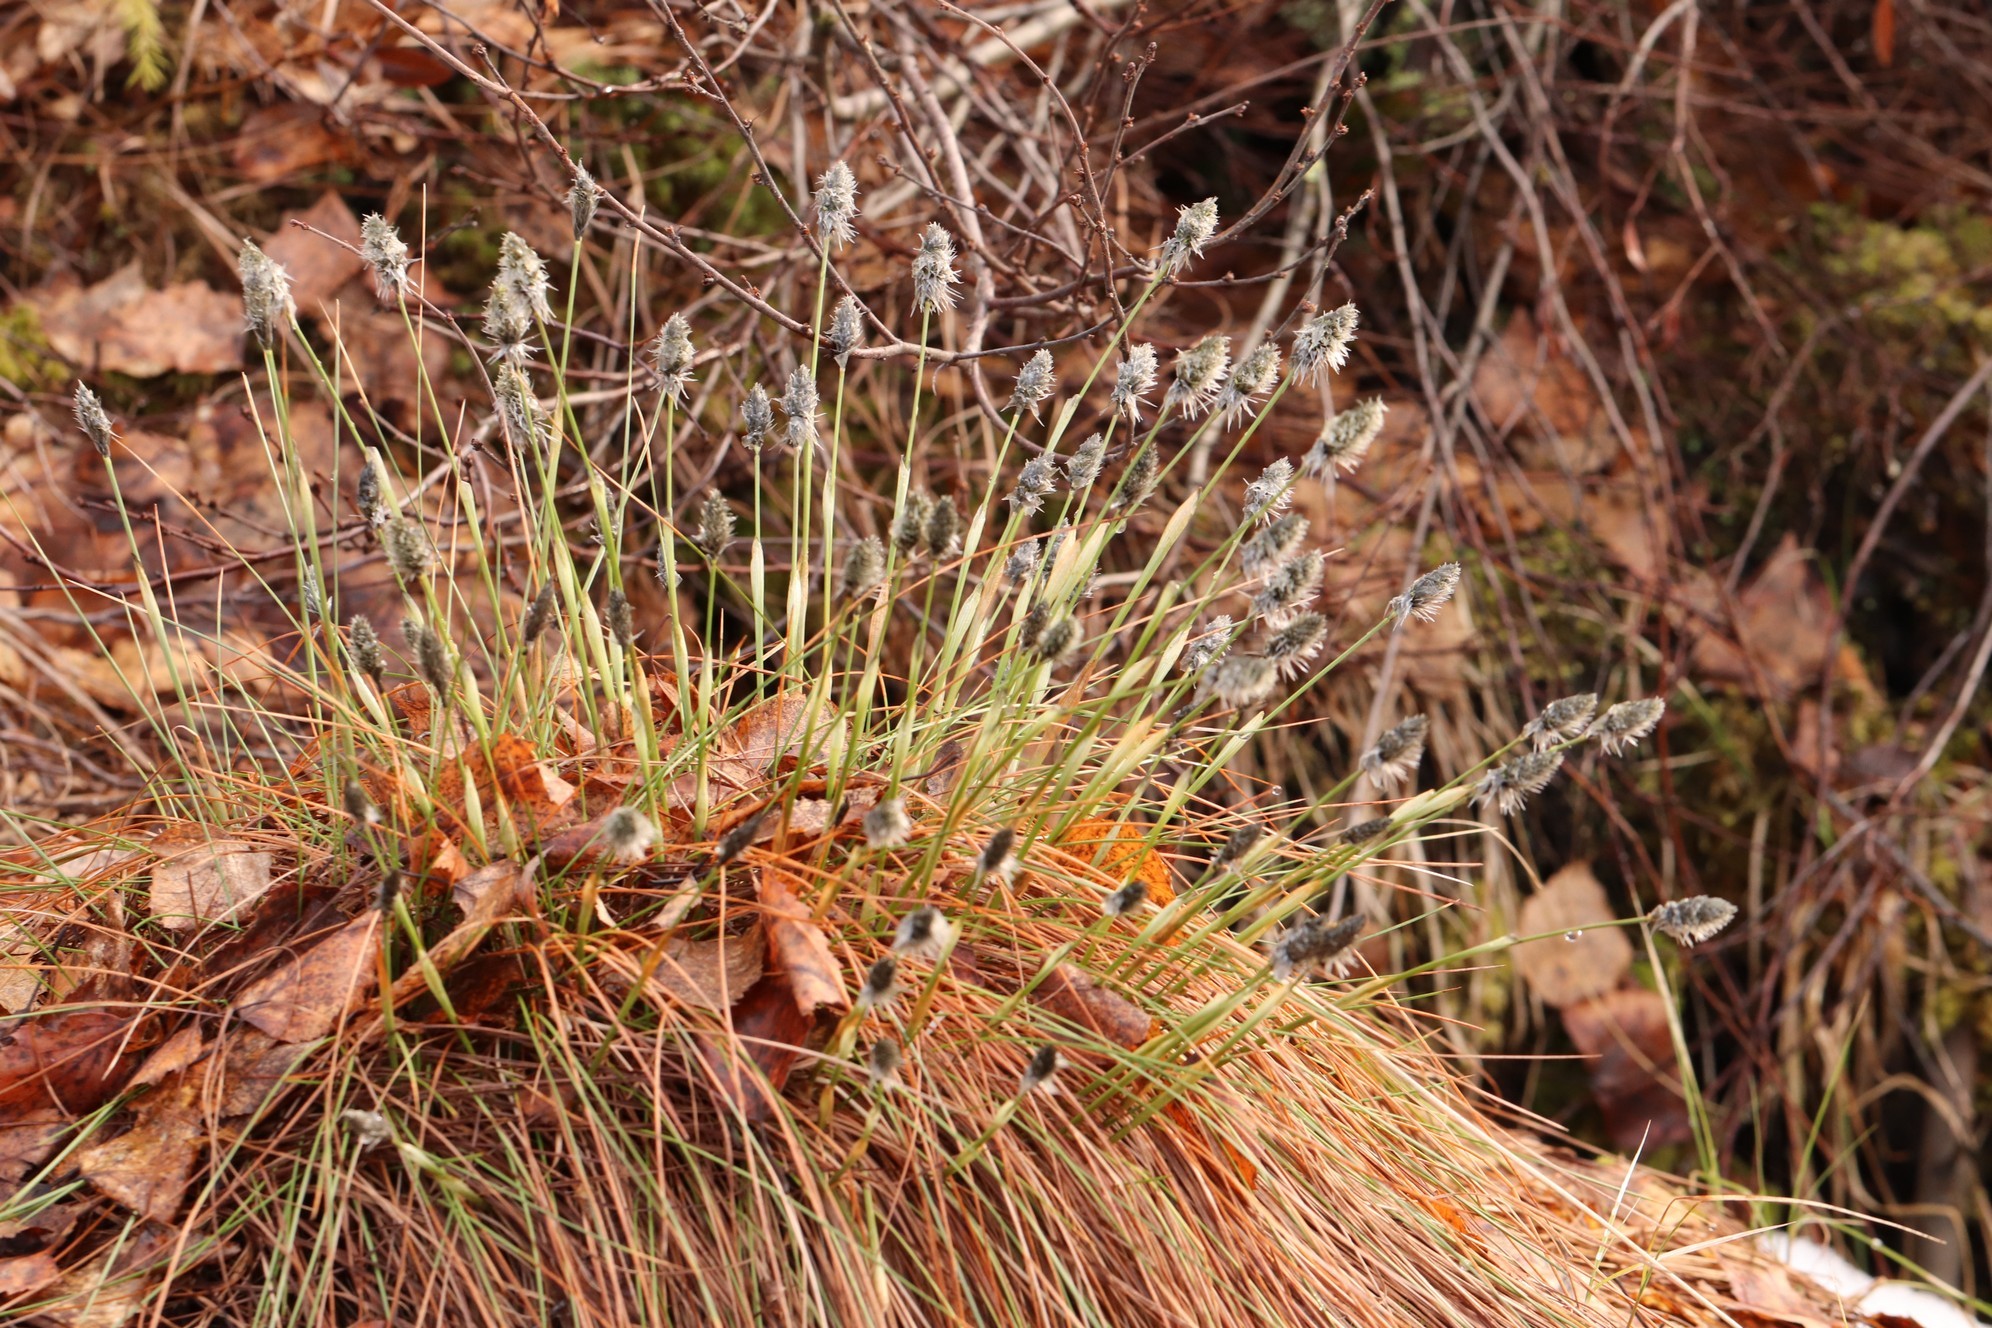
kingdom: Plantae
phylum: Tracheophyta
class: Liliopsida
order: Poales
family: Cyperaceae
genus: Eriophorum
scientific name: Eriophorum vaginatum
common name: Hare's-tail cottongrass
